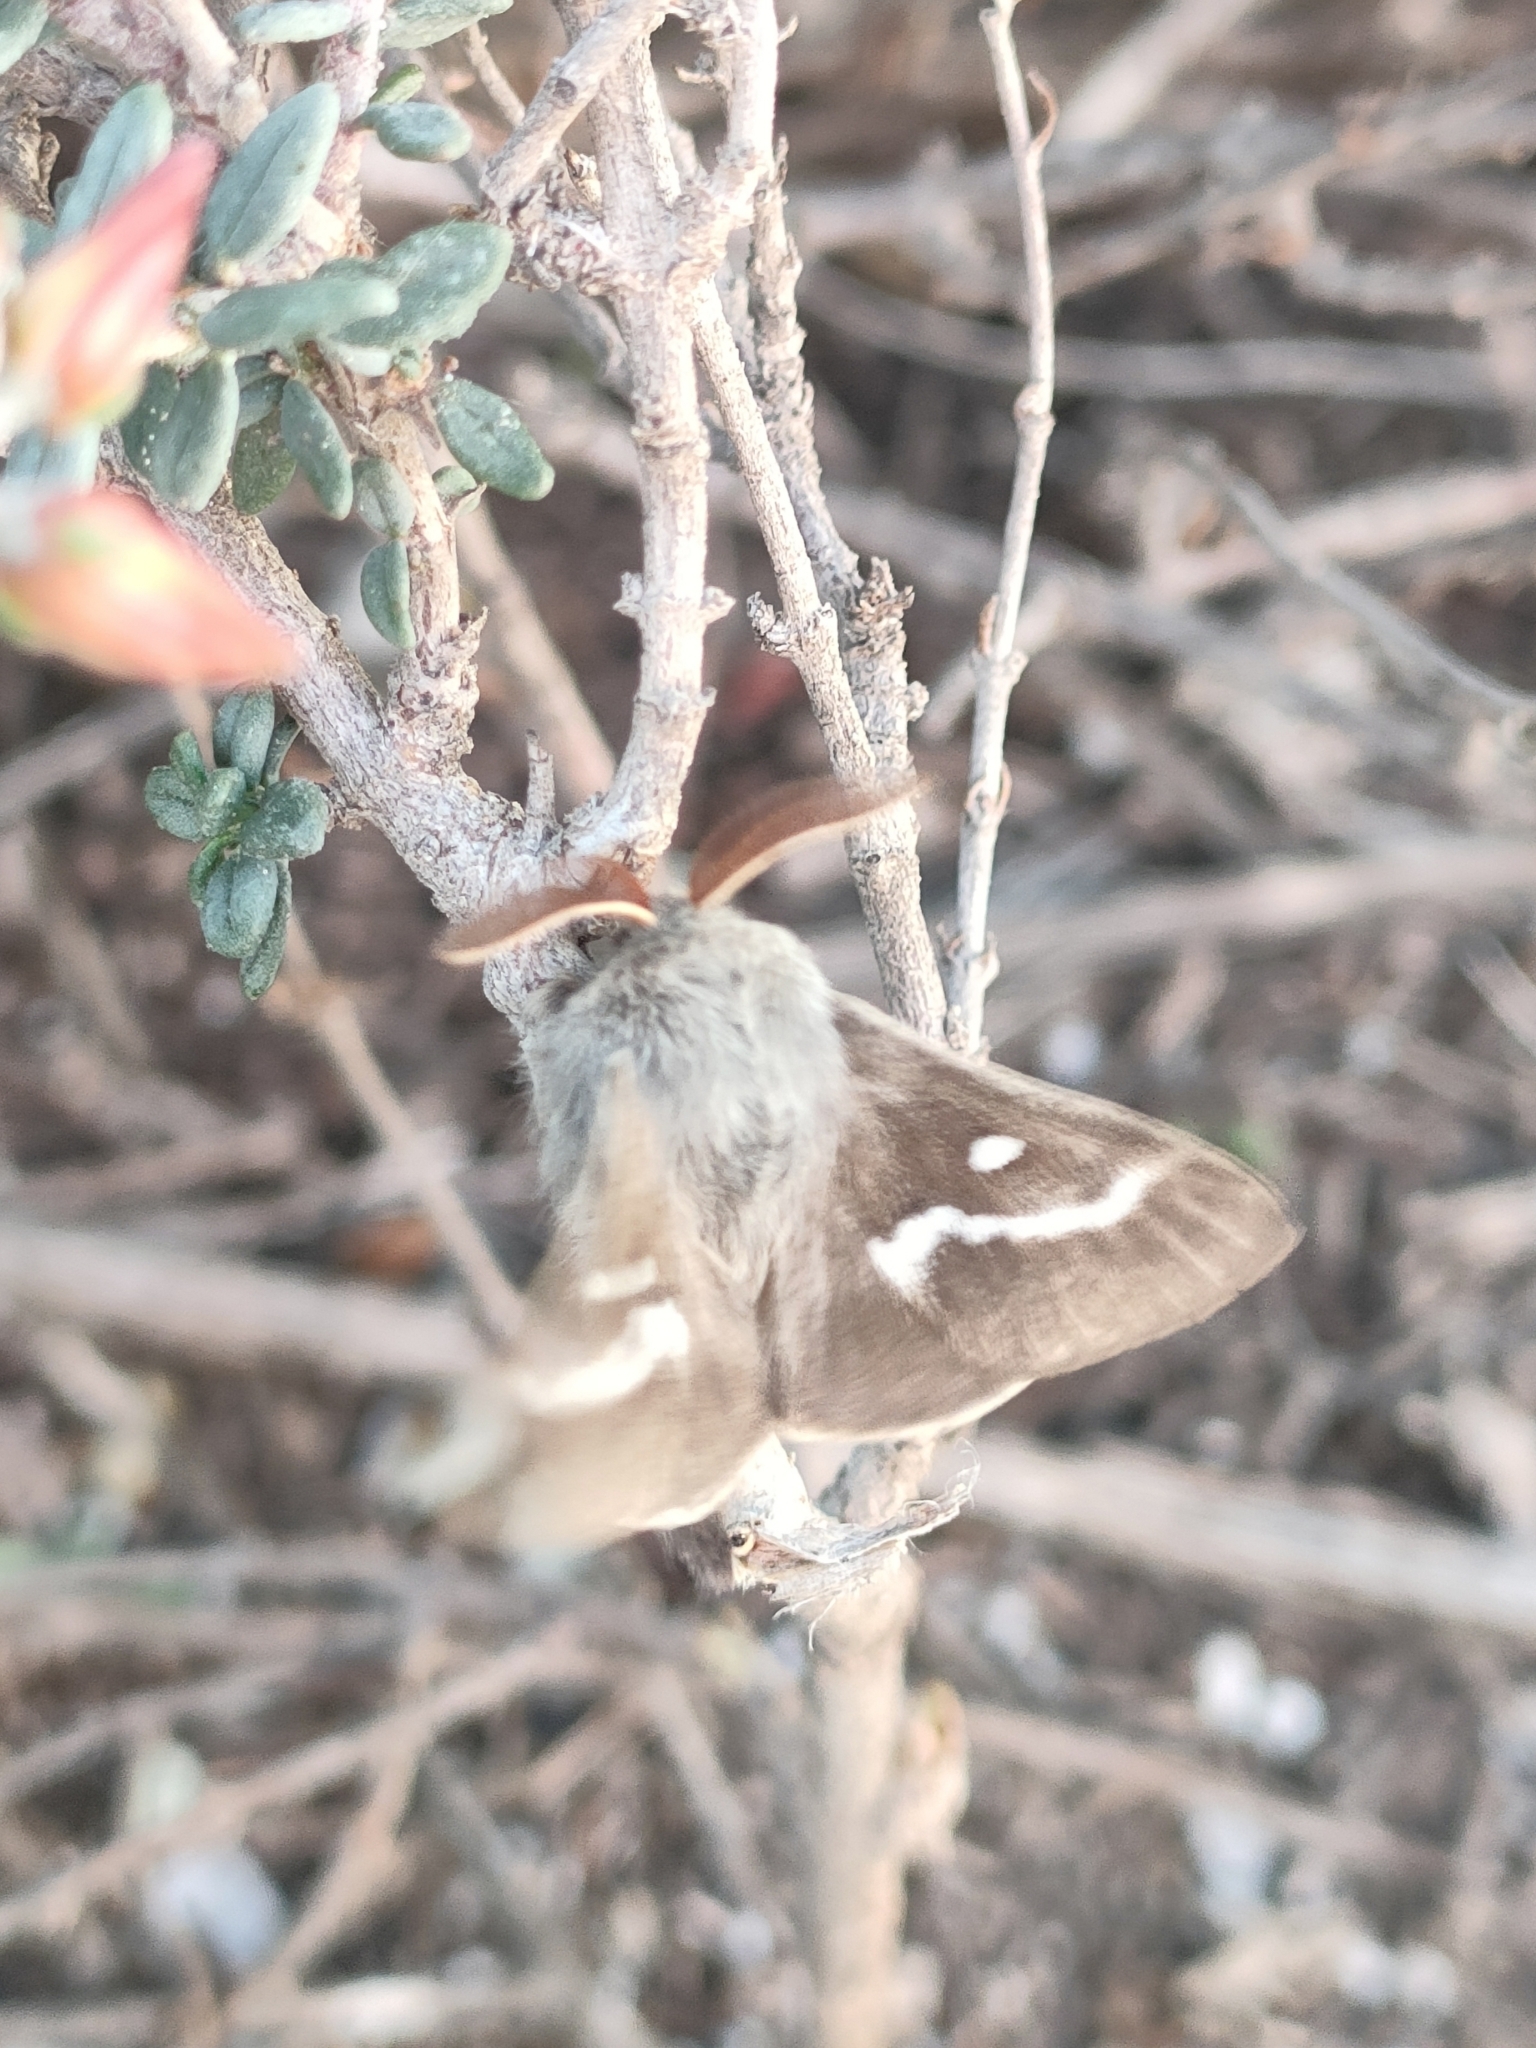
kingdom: Animalia
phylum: Arthropoda
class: Insecta
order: Lepidoptera
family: Lasiocampidae
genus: Psilogaster
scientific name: Psilogaster loti
